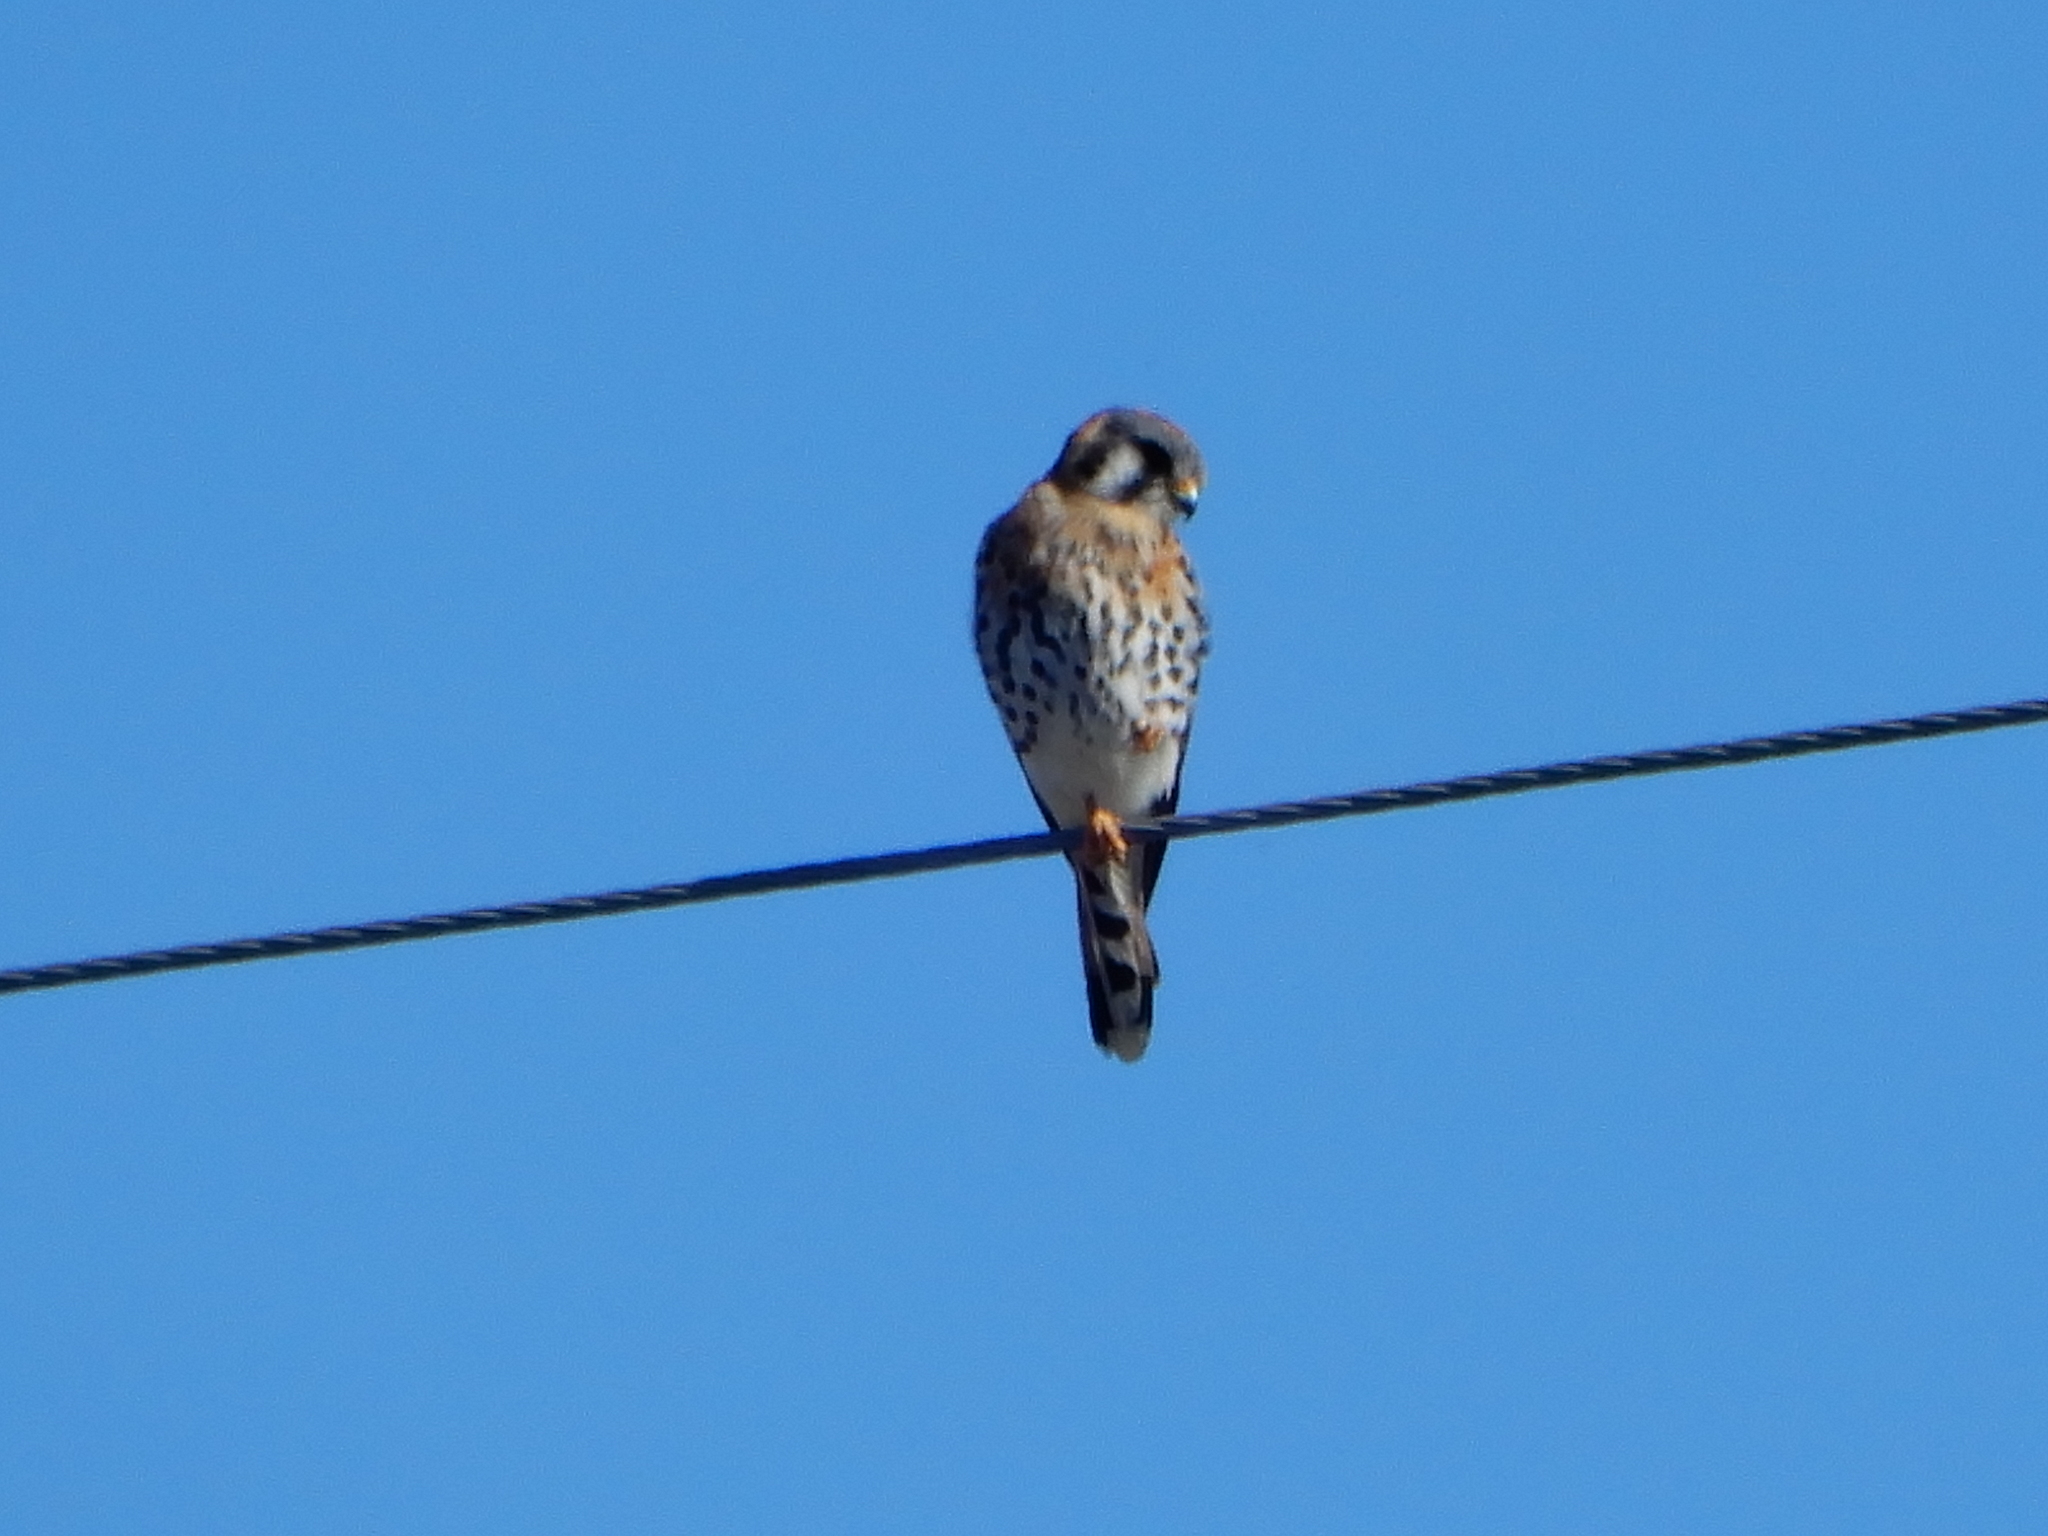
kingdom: Animalia
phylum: Chordata
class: Aves
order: Falconiformes
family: Falconidae
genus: Falco
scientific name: Falco sparverius
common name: American kestrel
